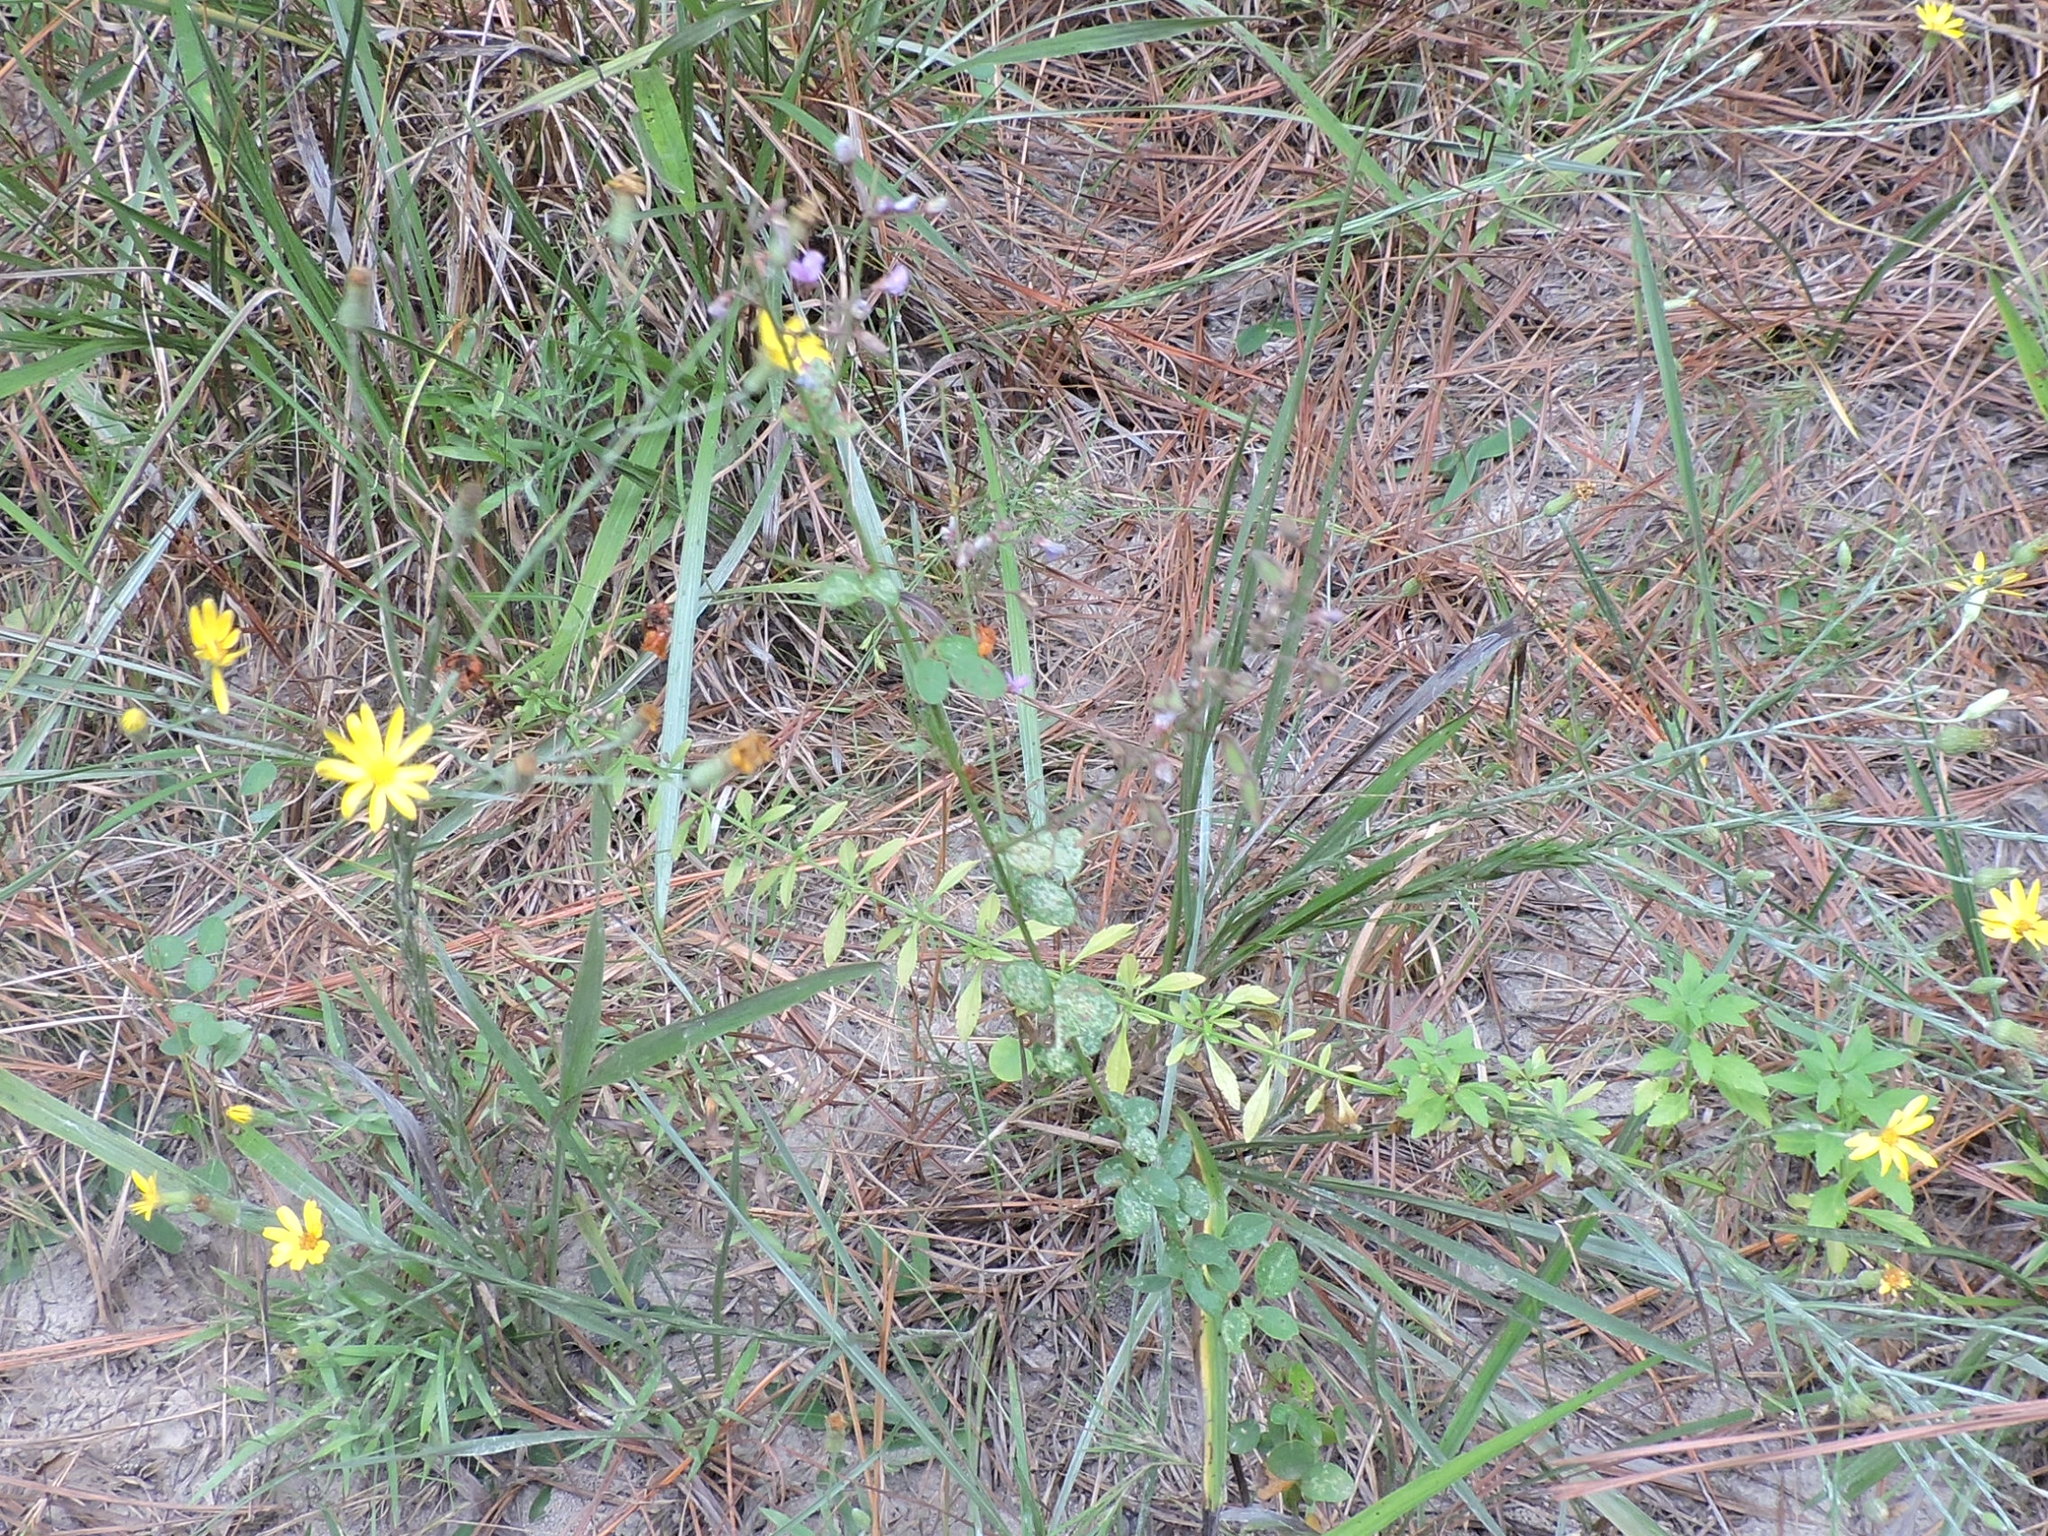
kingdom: Plantae
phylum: Tracheophyta
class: Magnoliopsida
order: Fabales
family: Fabaceae
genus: Desmodium
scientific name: Desmodium ciliare
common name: Hairy small-leaf ticktrefoil
